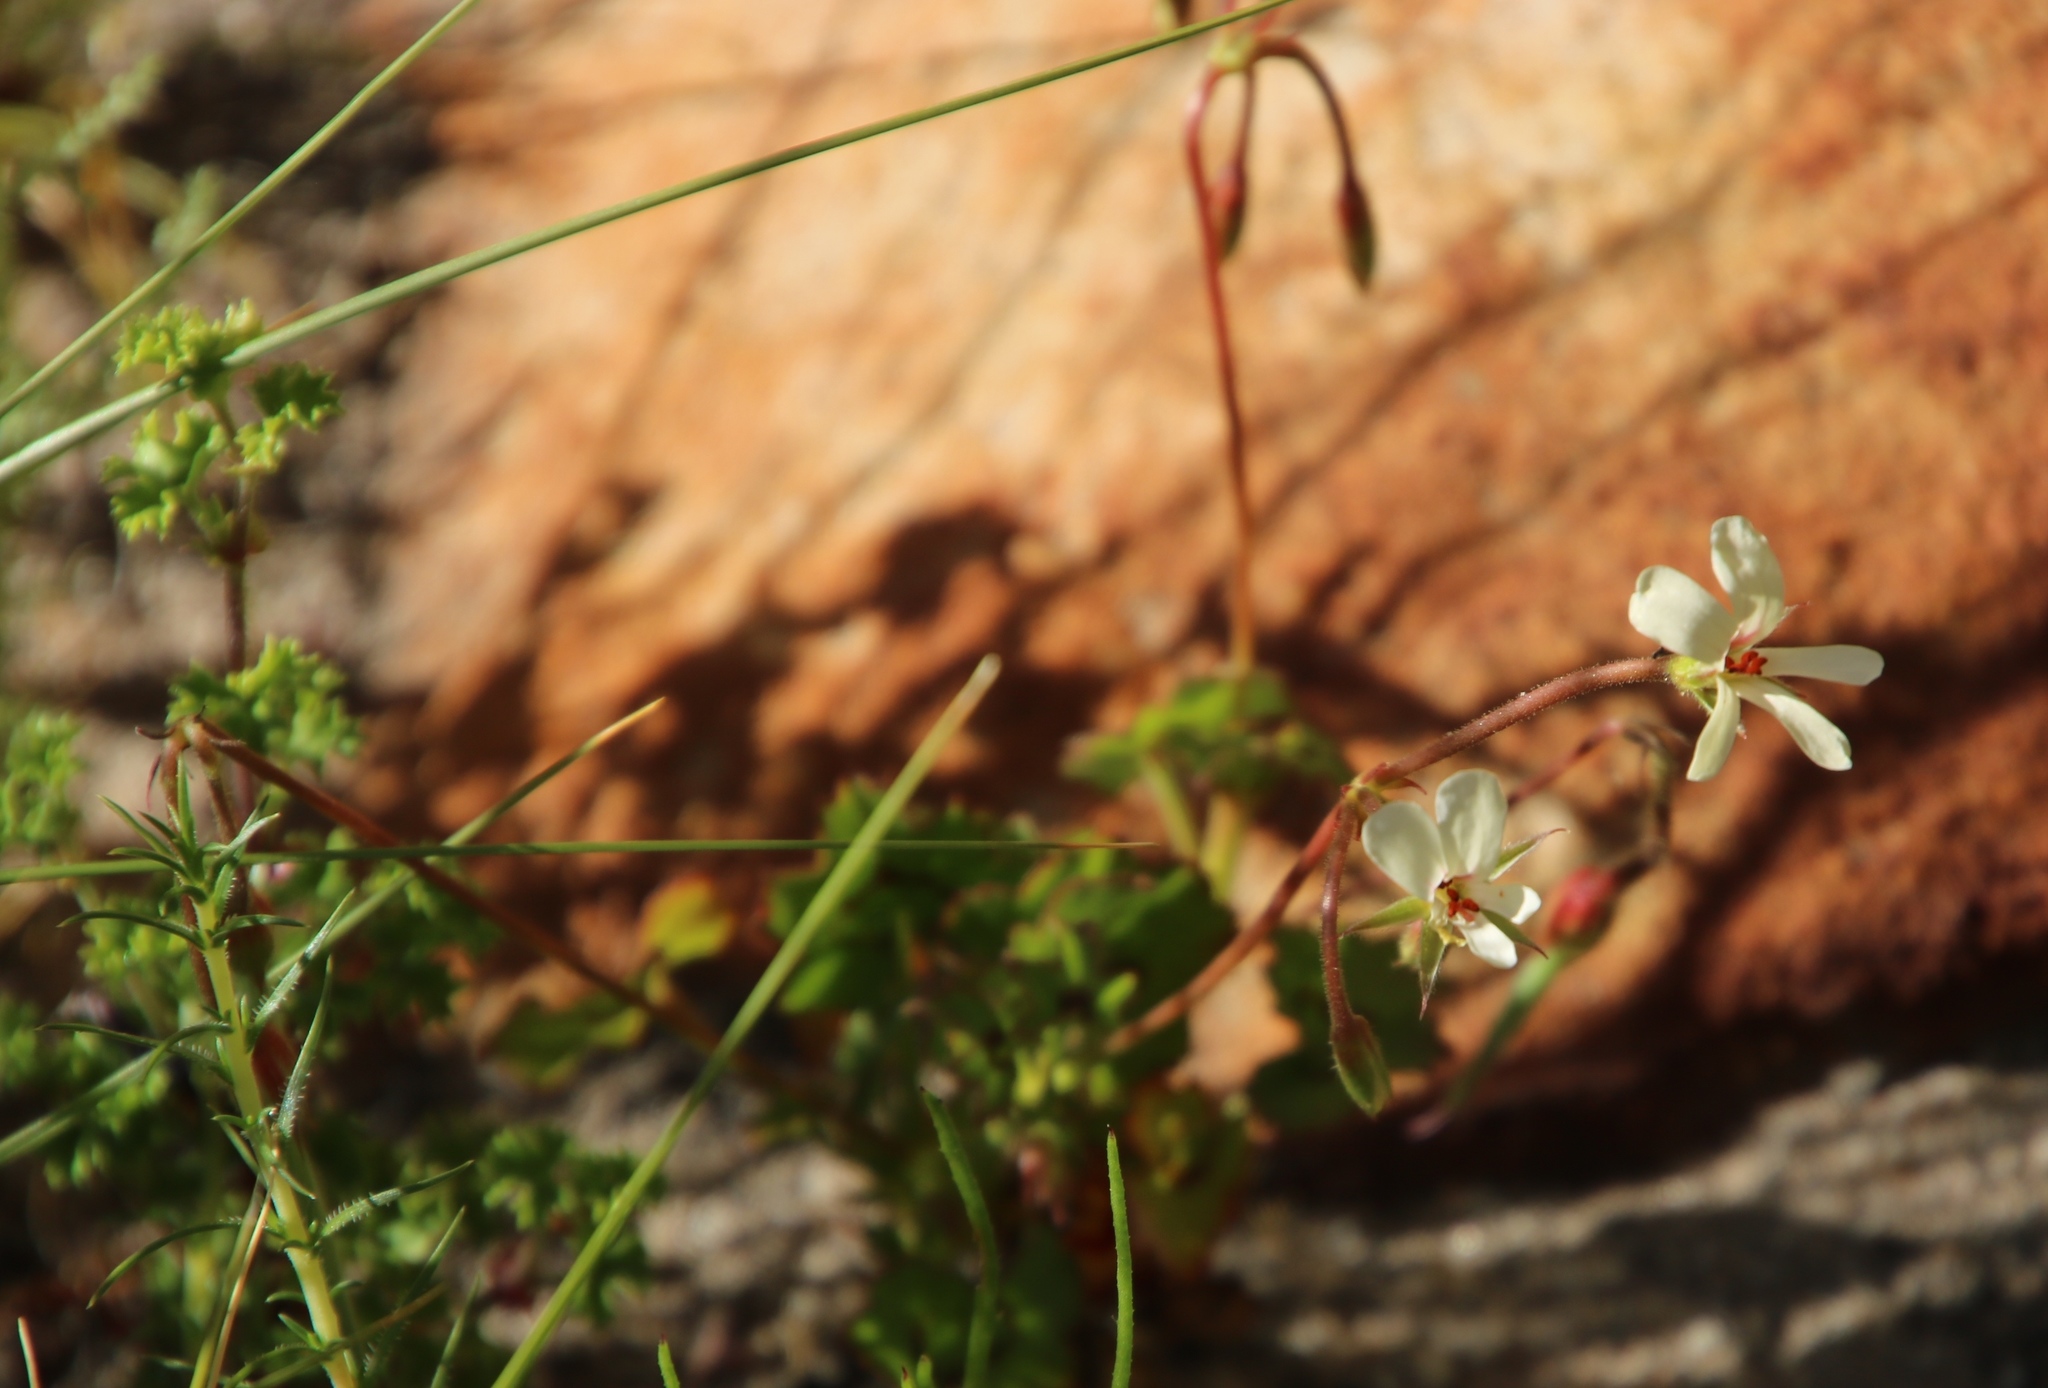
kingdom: Plantae
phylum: Tracheophyta
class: Magnoliopsida
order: Geraniales
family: Geraniaceae
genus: Pelargonium
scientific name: Pelargonium elongatum
